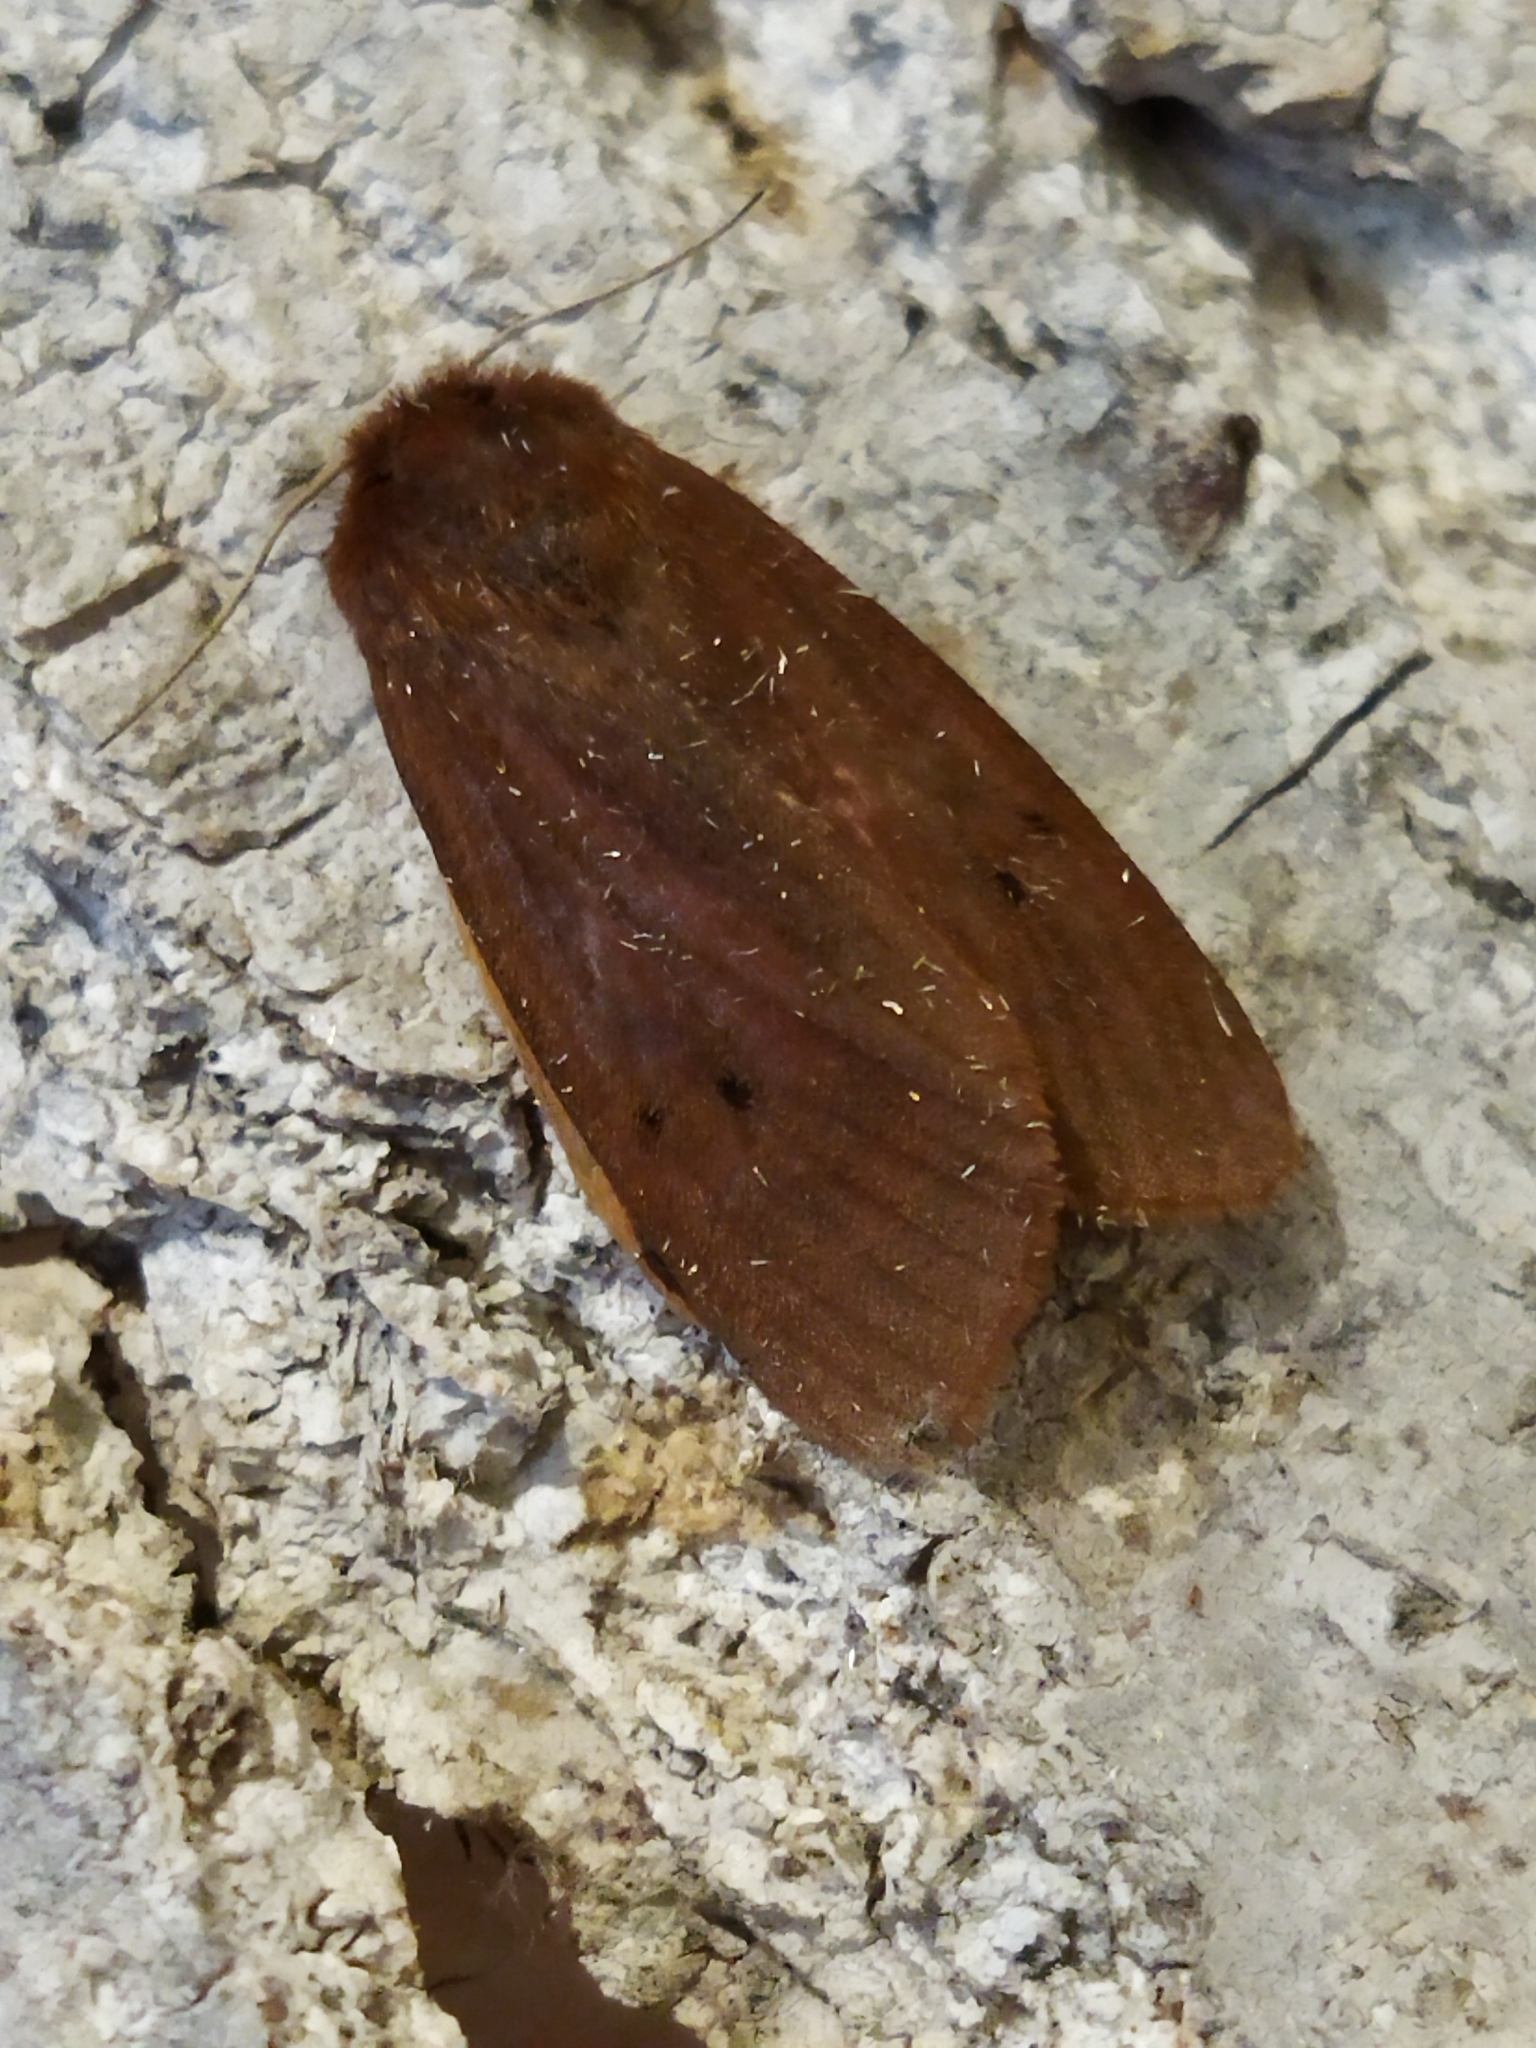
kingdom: Animalia
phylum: Arthropoda
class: Insecta
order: Lepidoptera
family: Erebidae
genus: Phragmatobia
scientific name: Phragmatobia fuliginosa
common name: Ruby tiger
